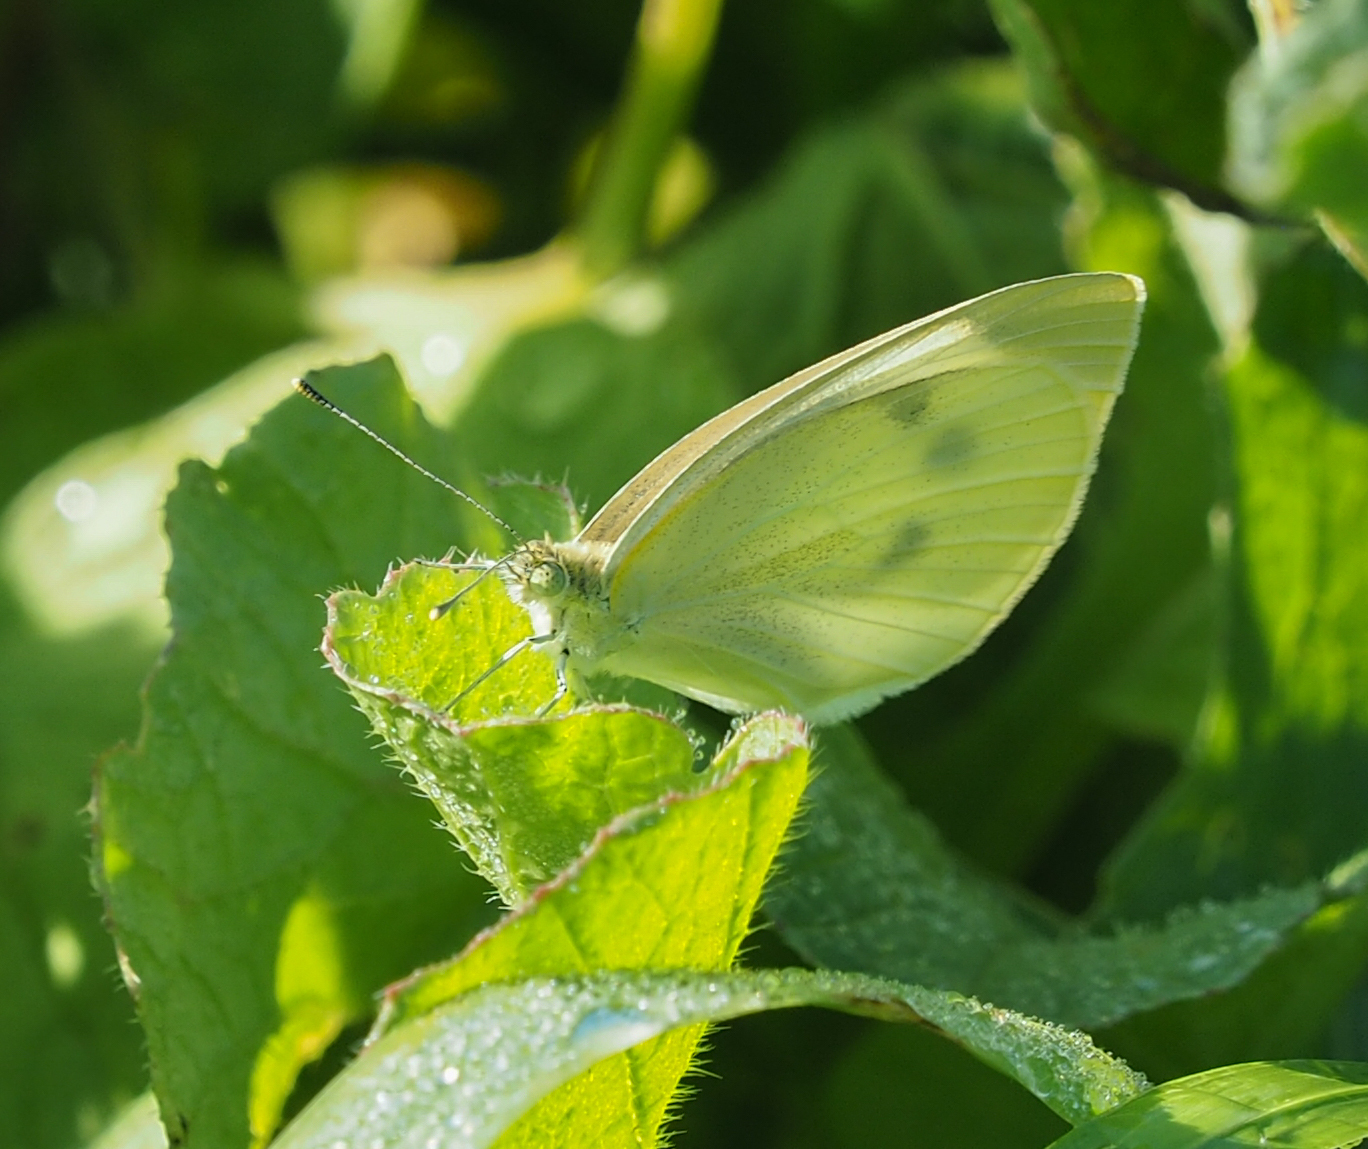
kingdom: Animalia
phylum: Arthropoda
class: Insecta
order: Lepidoptera
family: Pieridae
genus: Pieris
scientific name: Pieris rapae
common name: Small white
